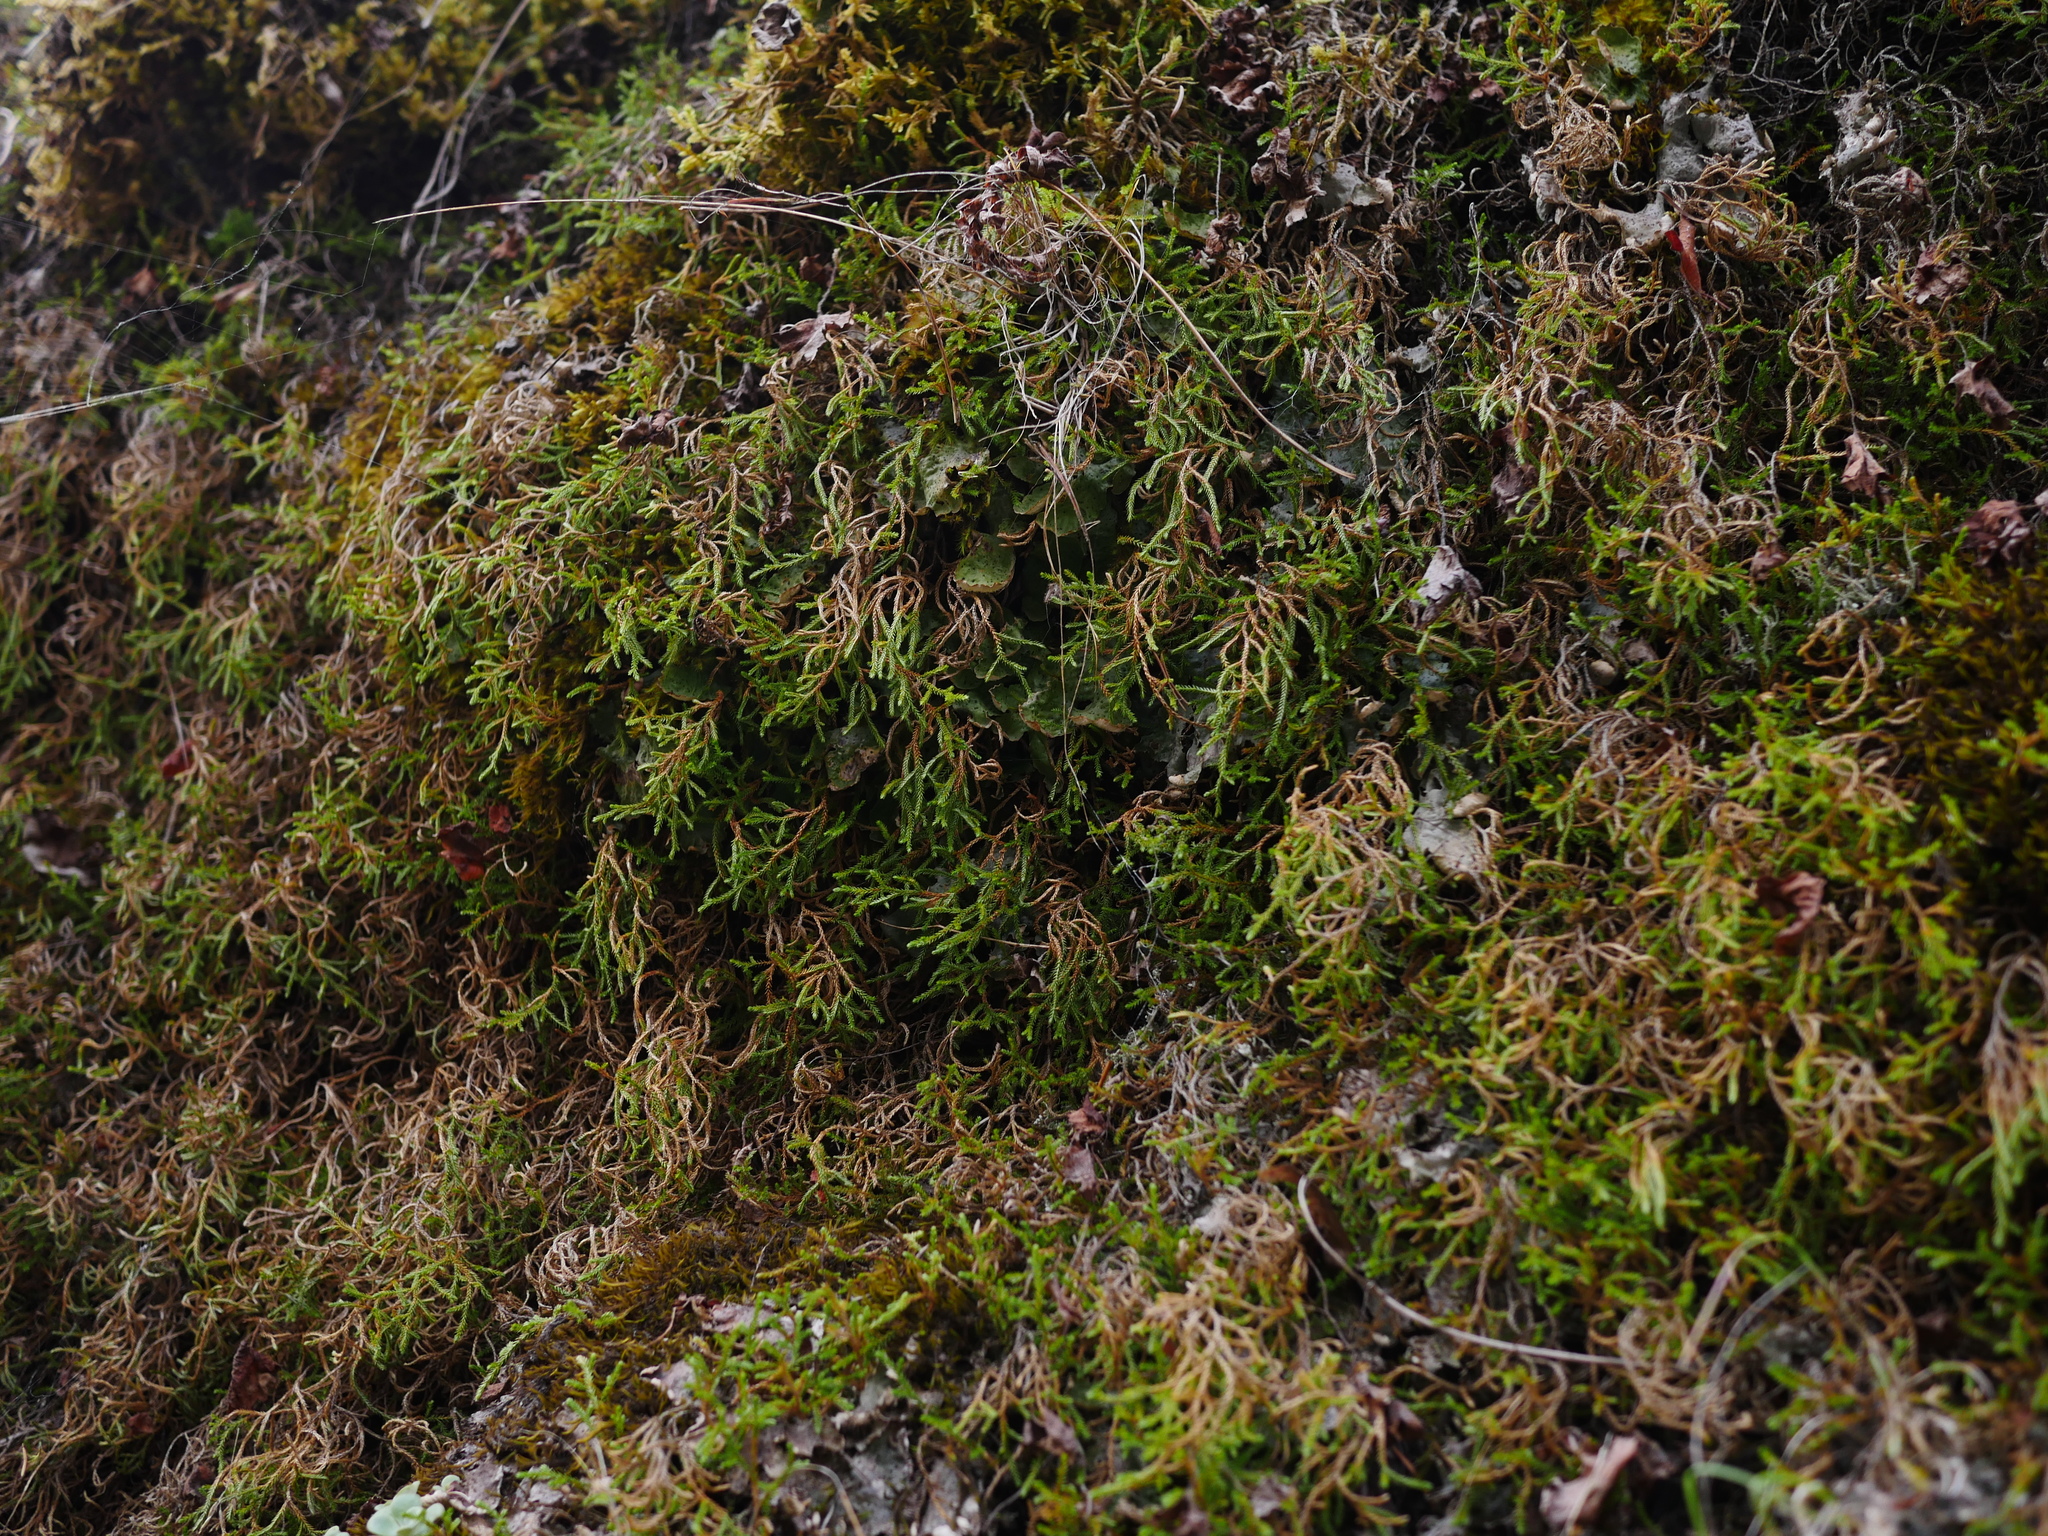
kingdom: Plantae
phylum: Tracheophyta
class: Lycopodiopsida
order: Selaginellales
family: Selaginellaceae
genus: Selaginella
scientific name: Selaginella oregana
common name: Oregon selaginella
